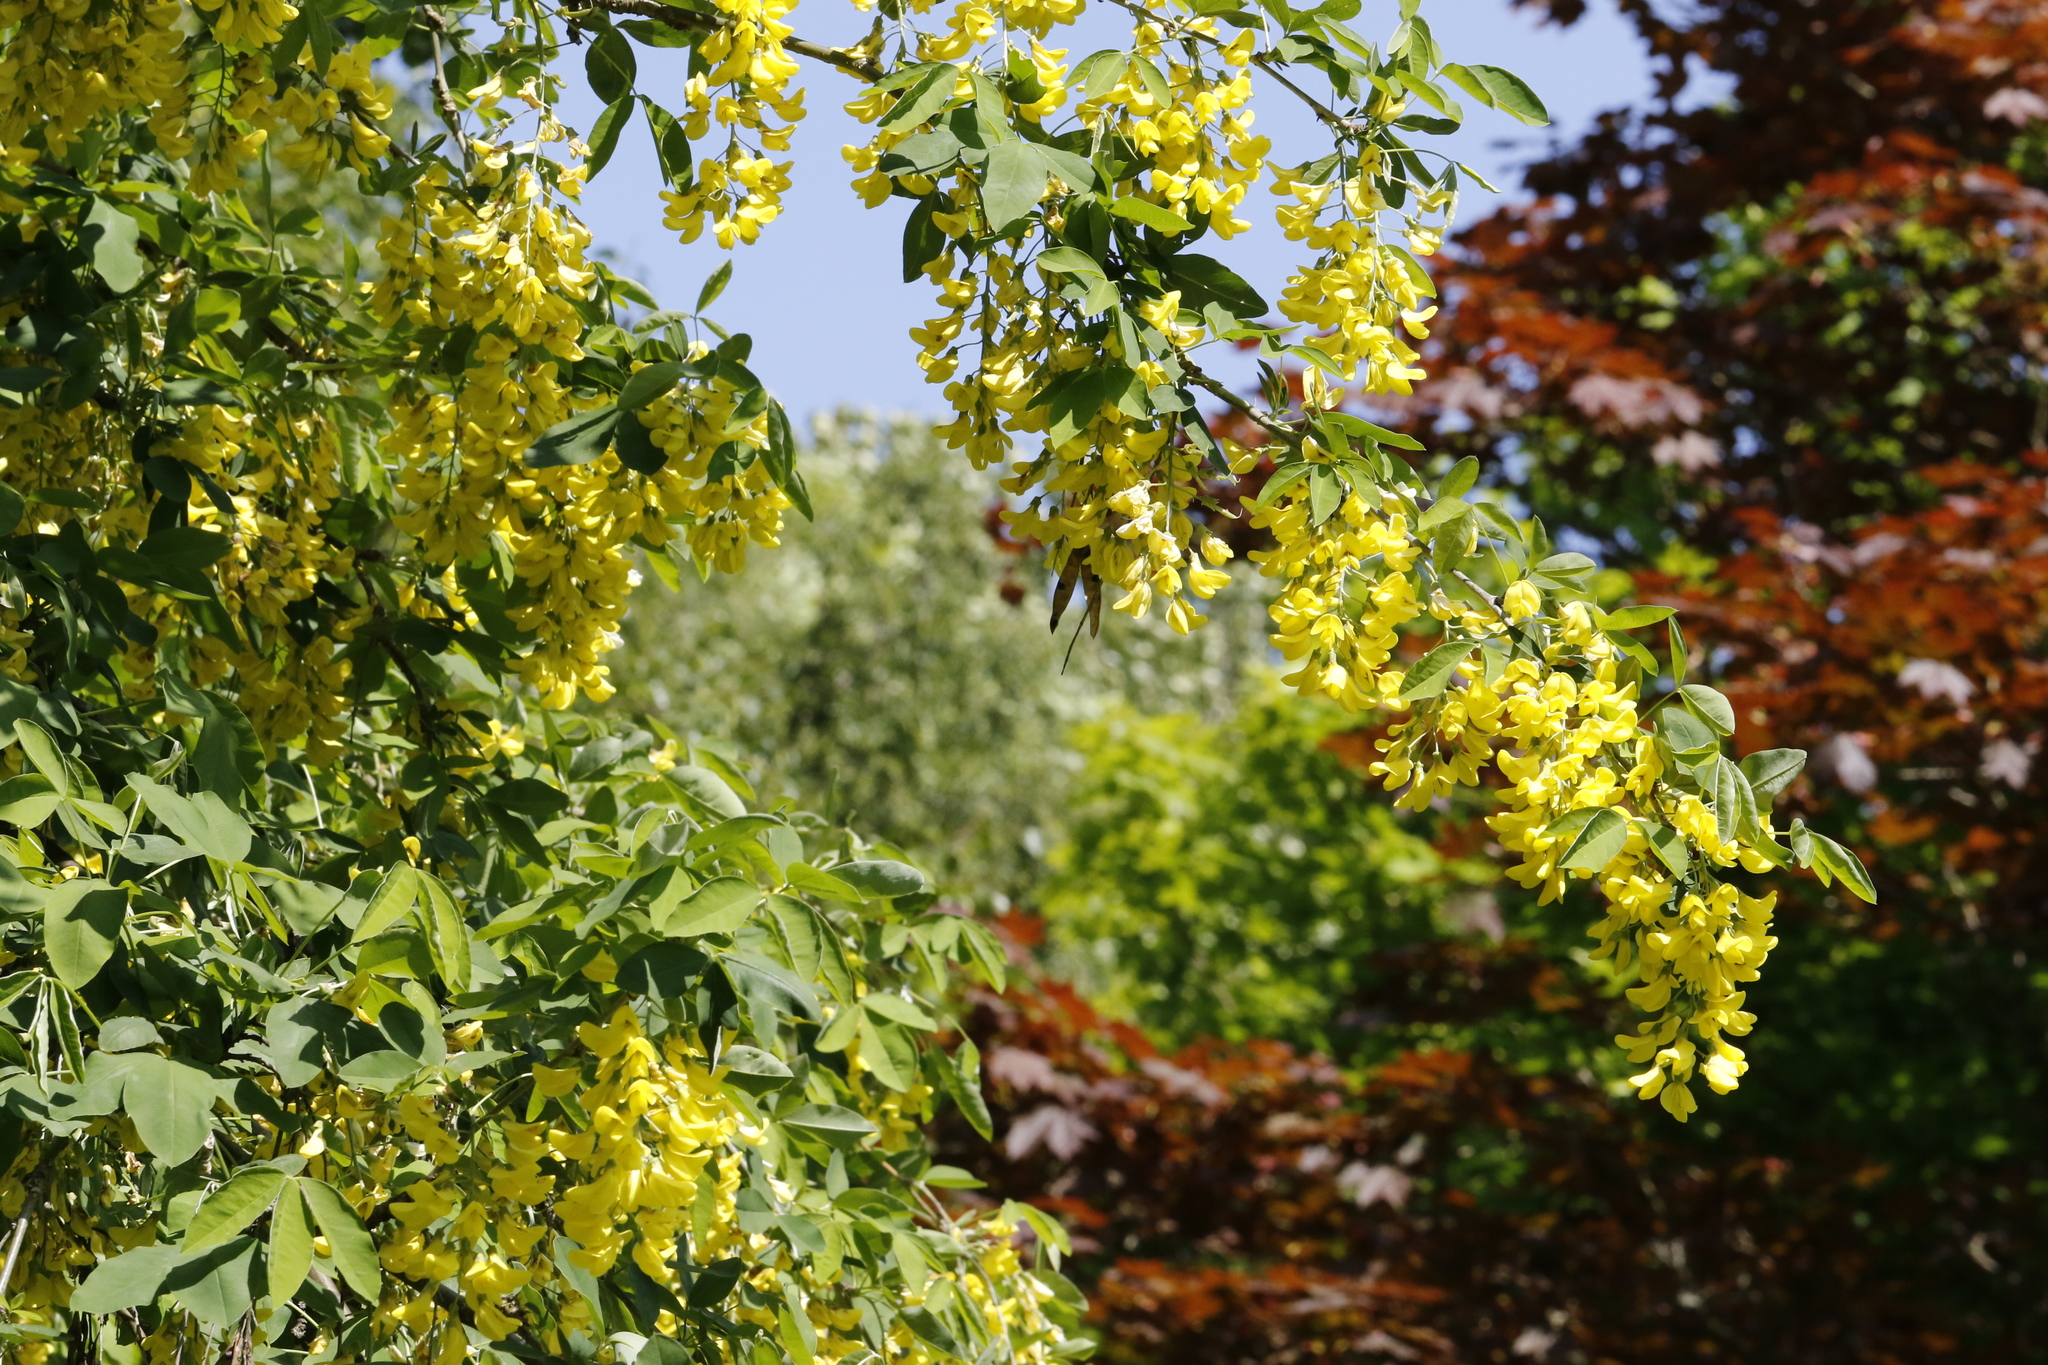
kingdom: Plantae
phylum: Tracheophyta
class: Magnoliopsida
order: Fabales
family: Fabaceae
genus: Laburnum
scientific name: Laburnum anagyroides
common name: Laburnum
